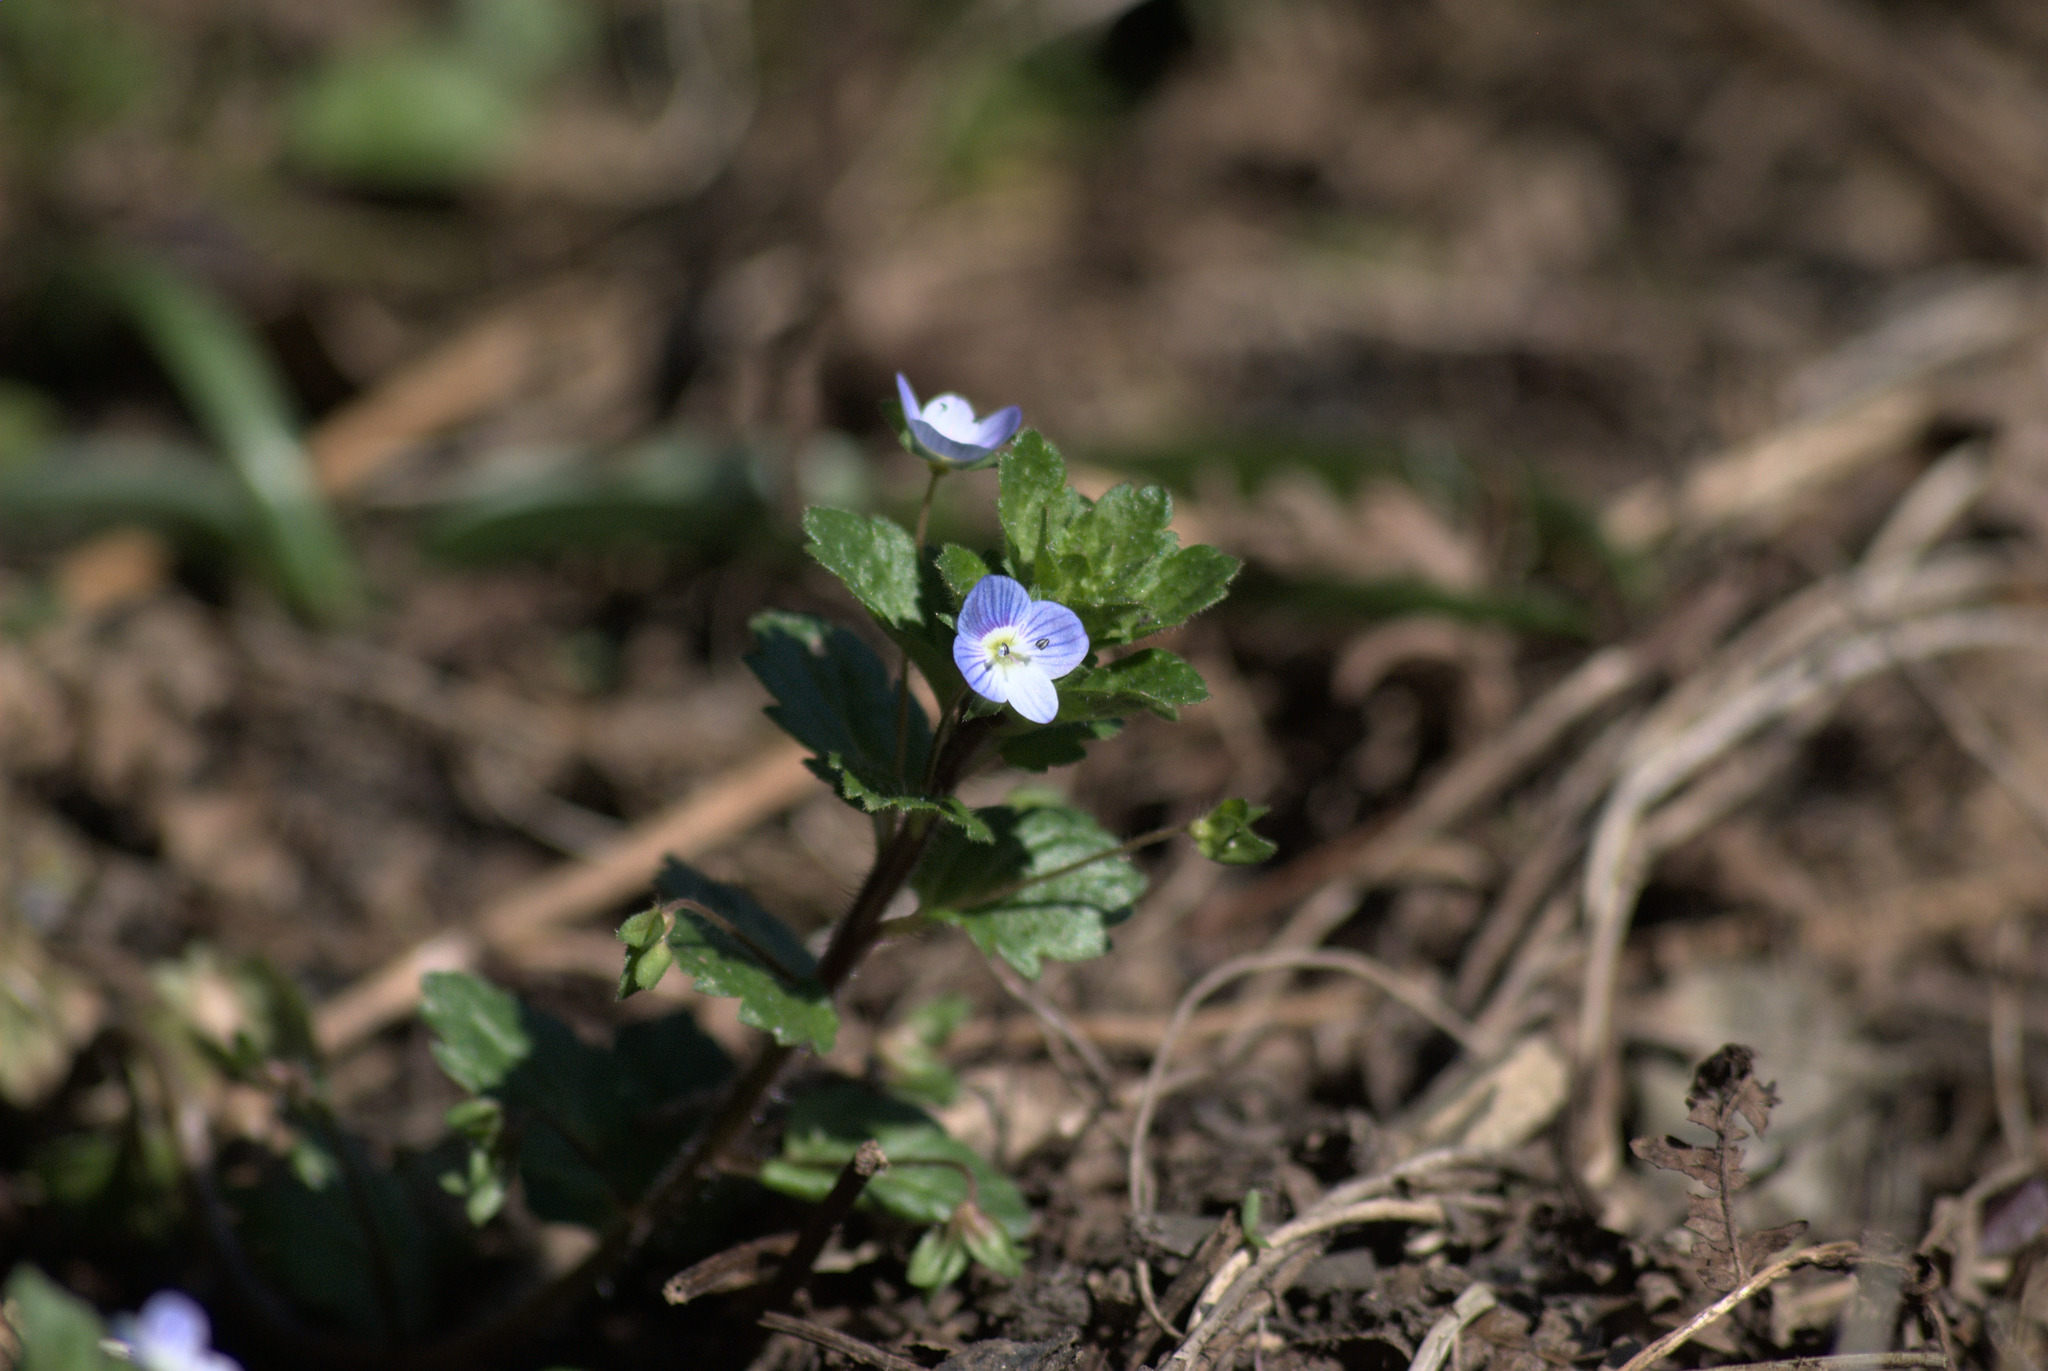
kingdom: Plantae
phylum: Tracheophyta
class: Magnoliopsida
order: Lamiales
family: Plantaginaceae
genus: Veronica
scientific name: Veronica persica
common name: Common field-speedwell
